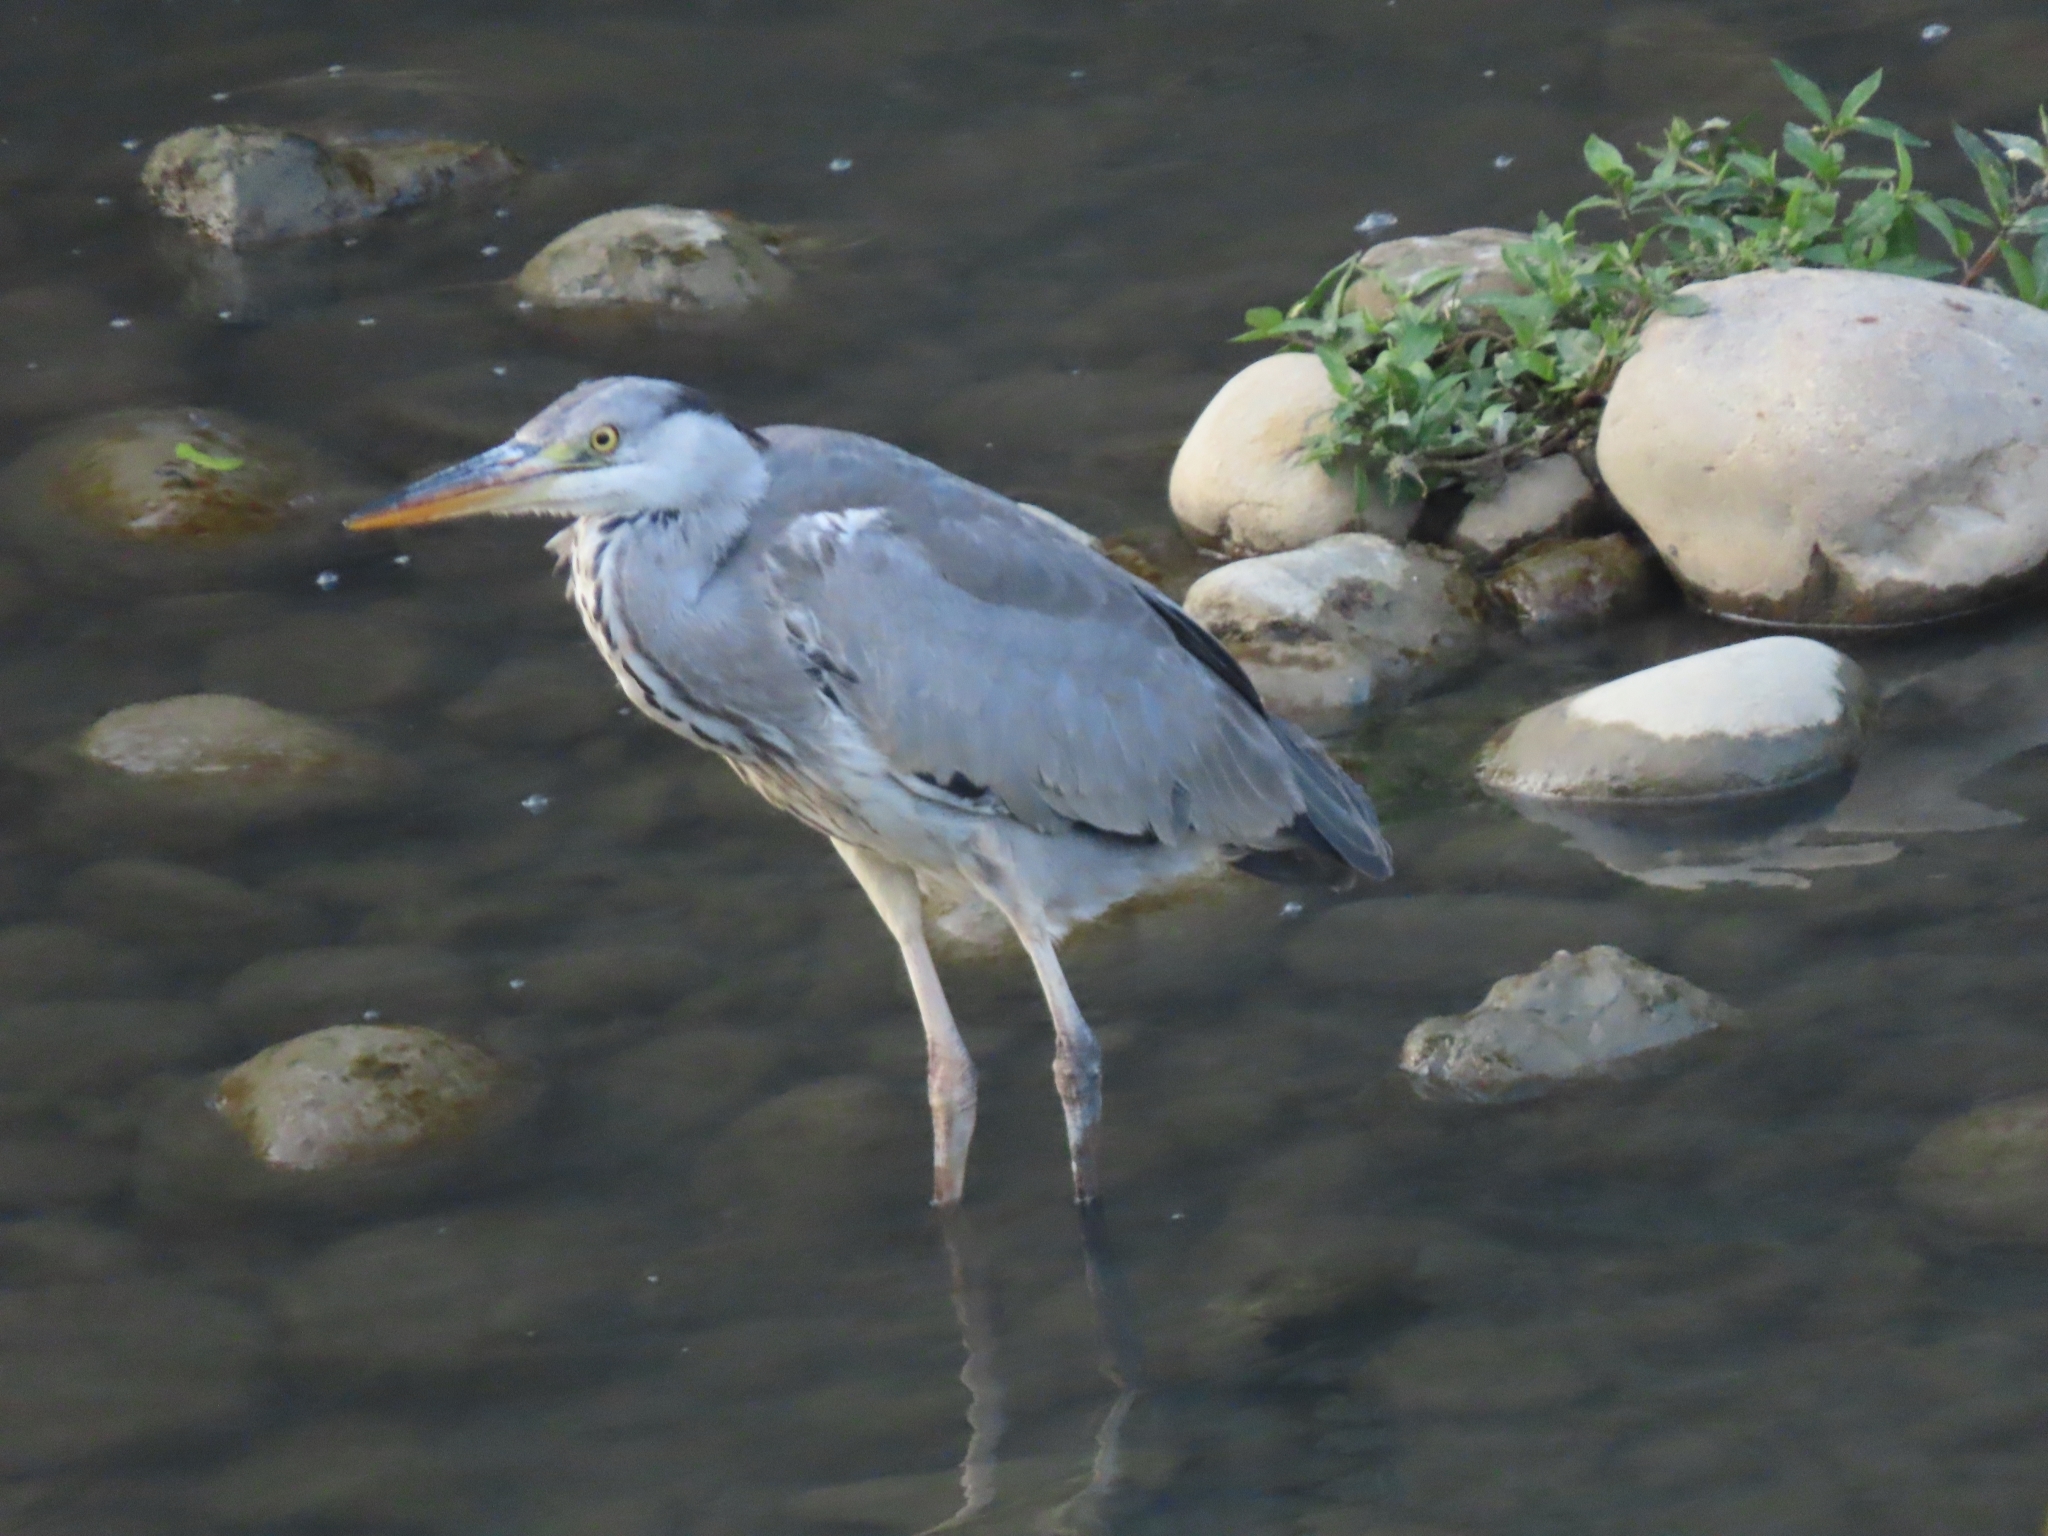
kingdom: Animalia
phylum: Chordata
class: Aves
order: Pelecaniformes
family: Ardeidae
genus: Ardea
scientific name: Ardea cinerea
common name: Grey heron
